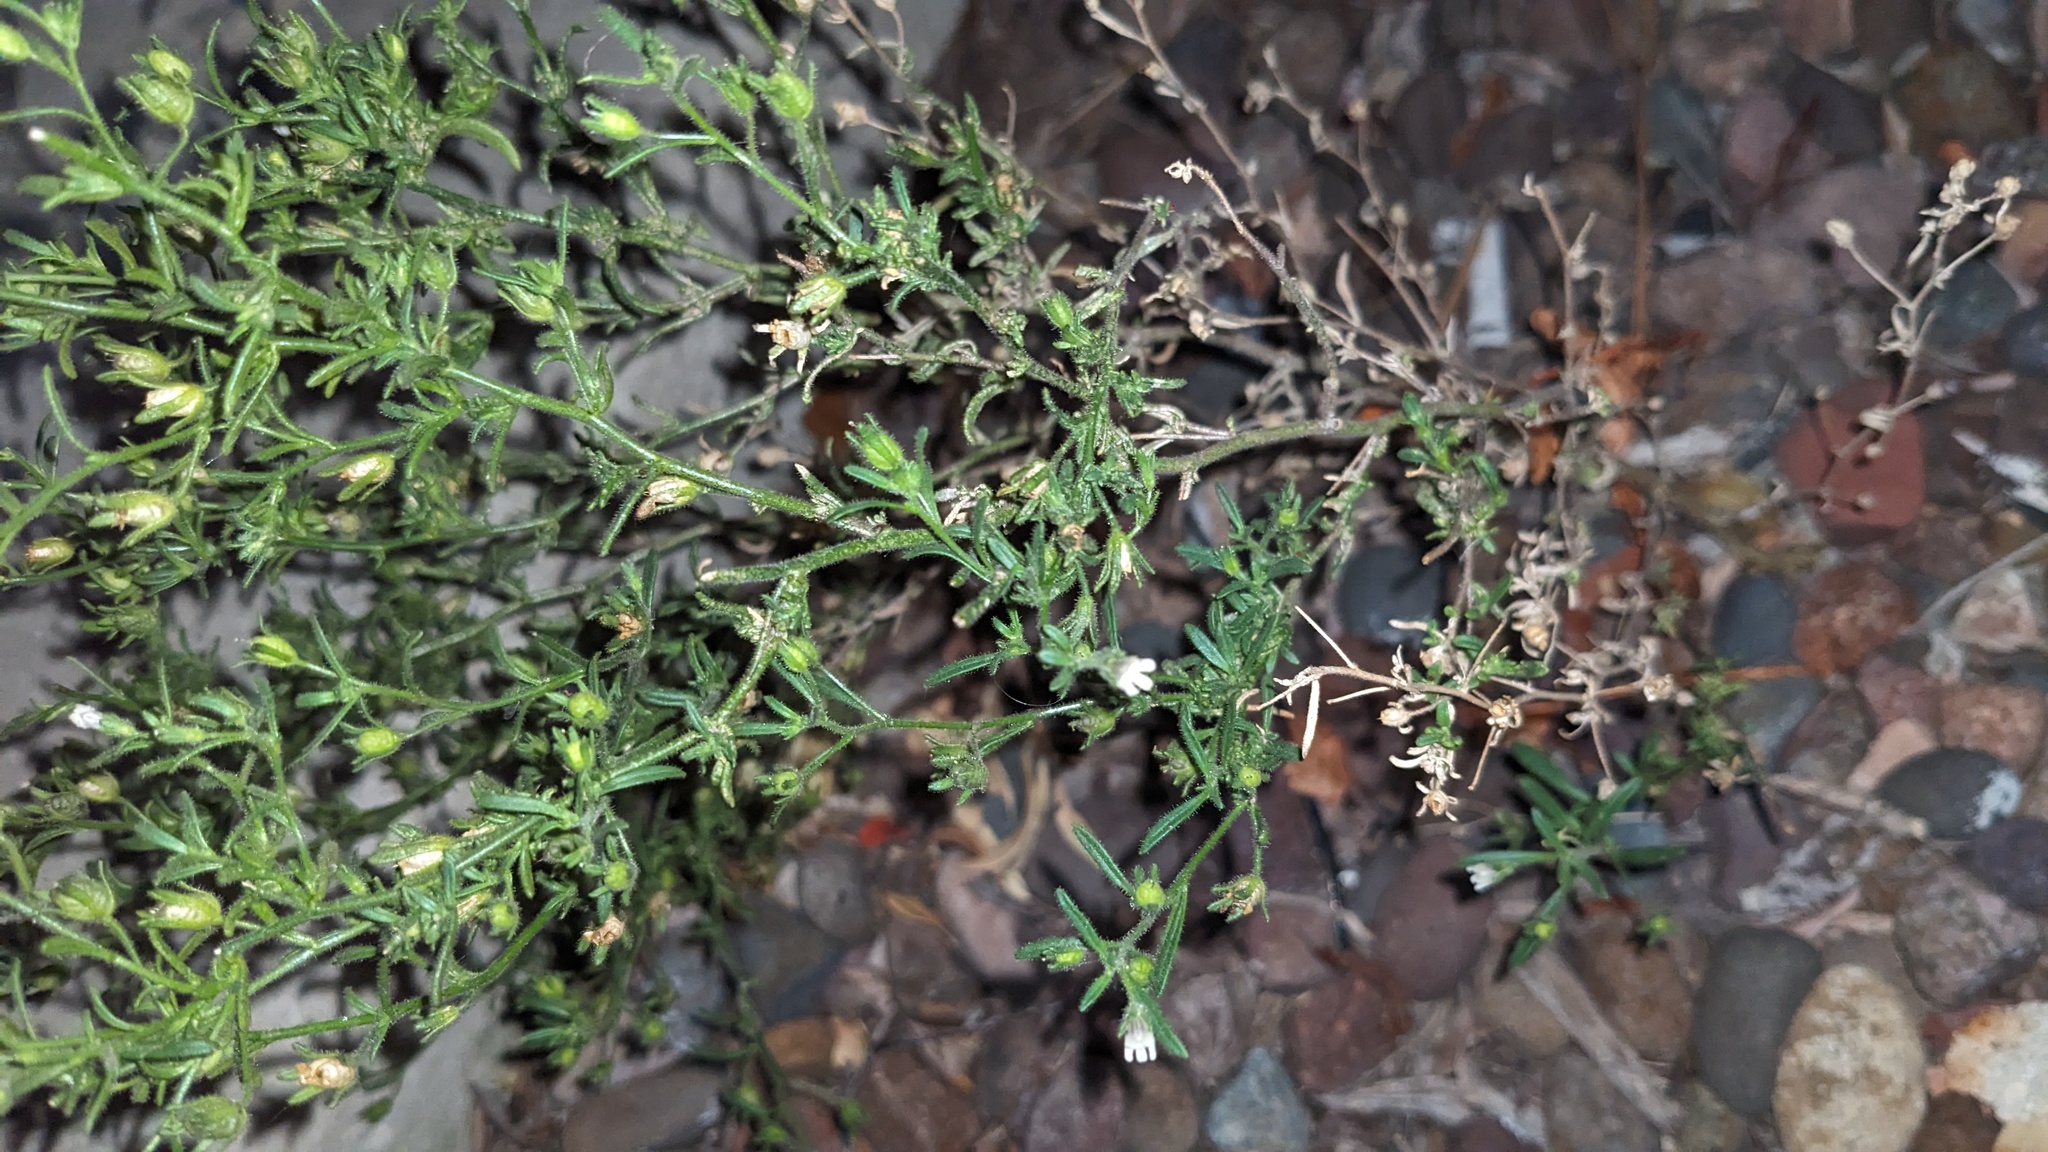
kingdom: Plantae
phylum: Tracheophyta
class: Magnoliopsida
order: Lamiales
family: Plantaginaceae
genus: Chaenorhinum
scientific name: Chaenorhinum minus
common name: Dwarf snapdragon
